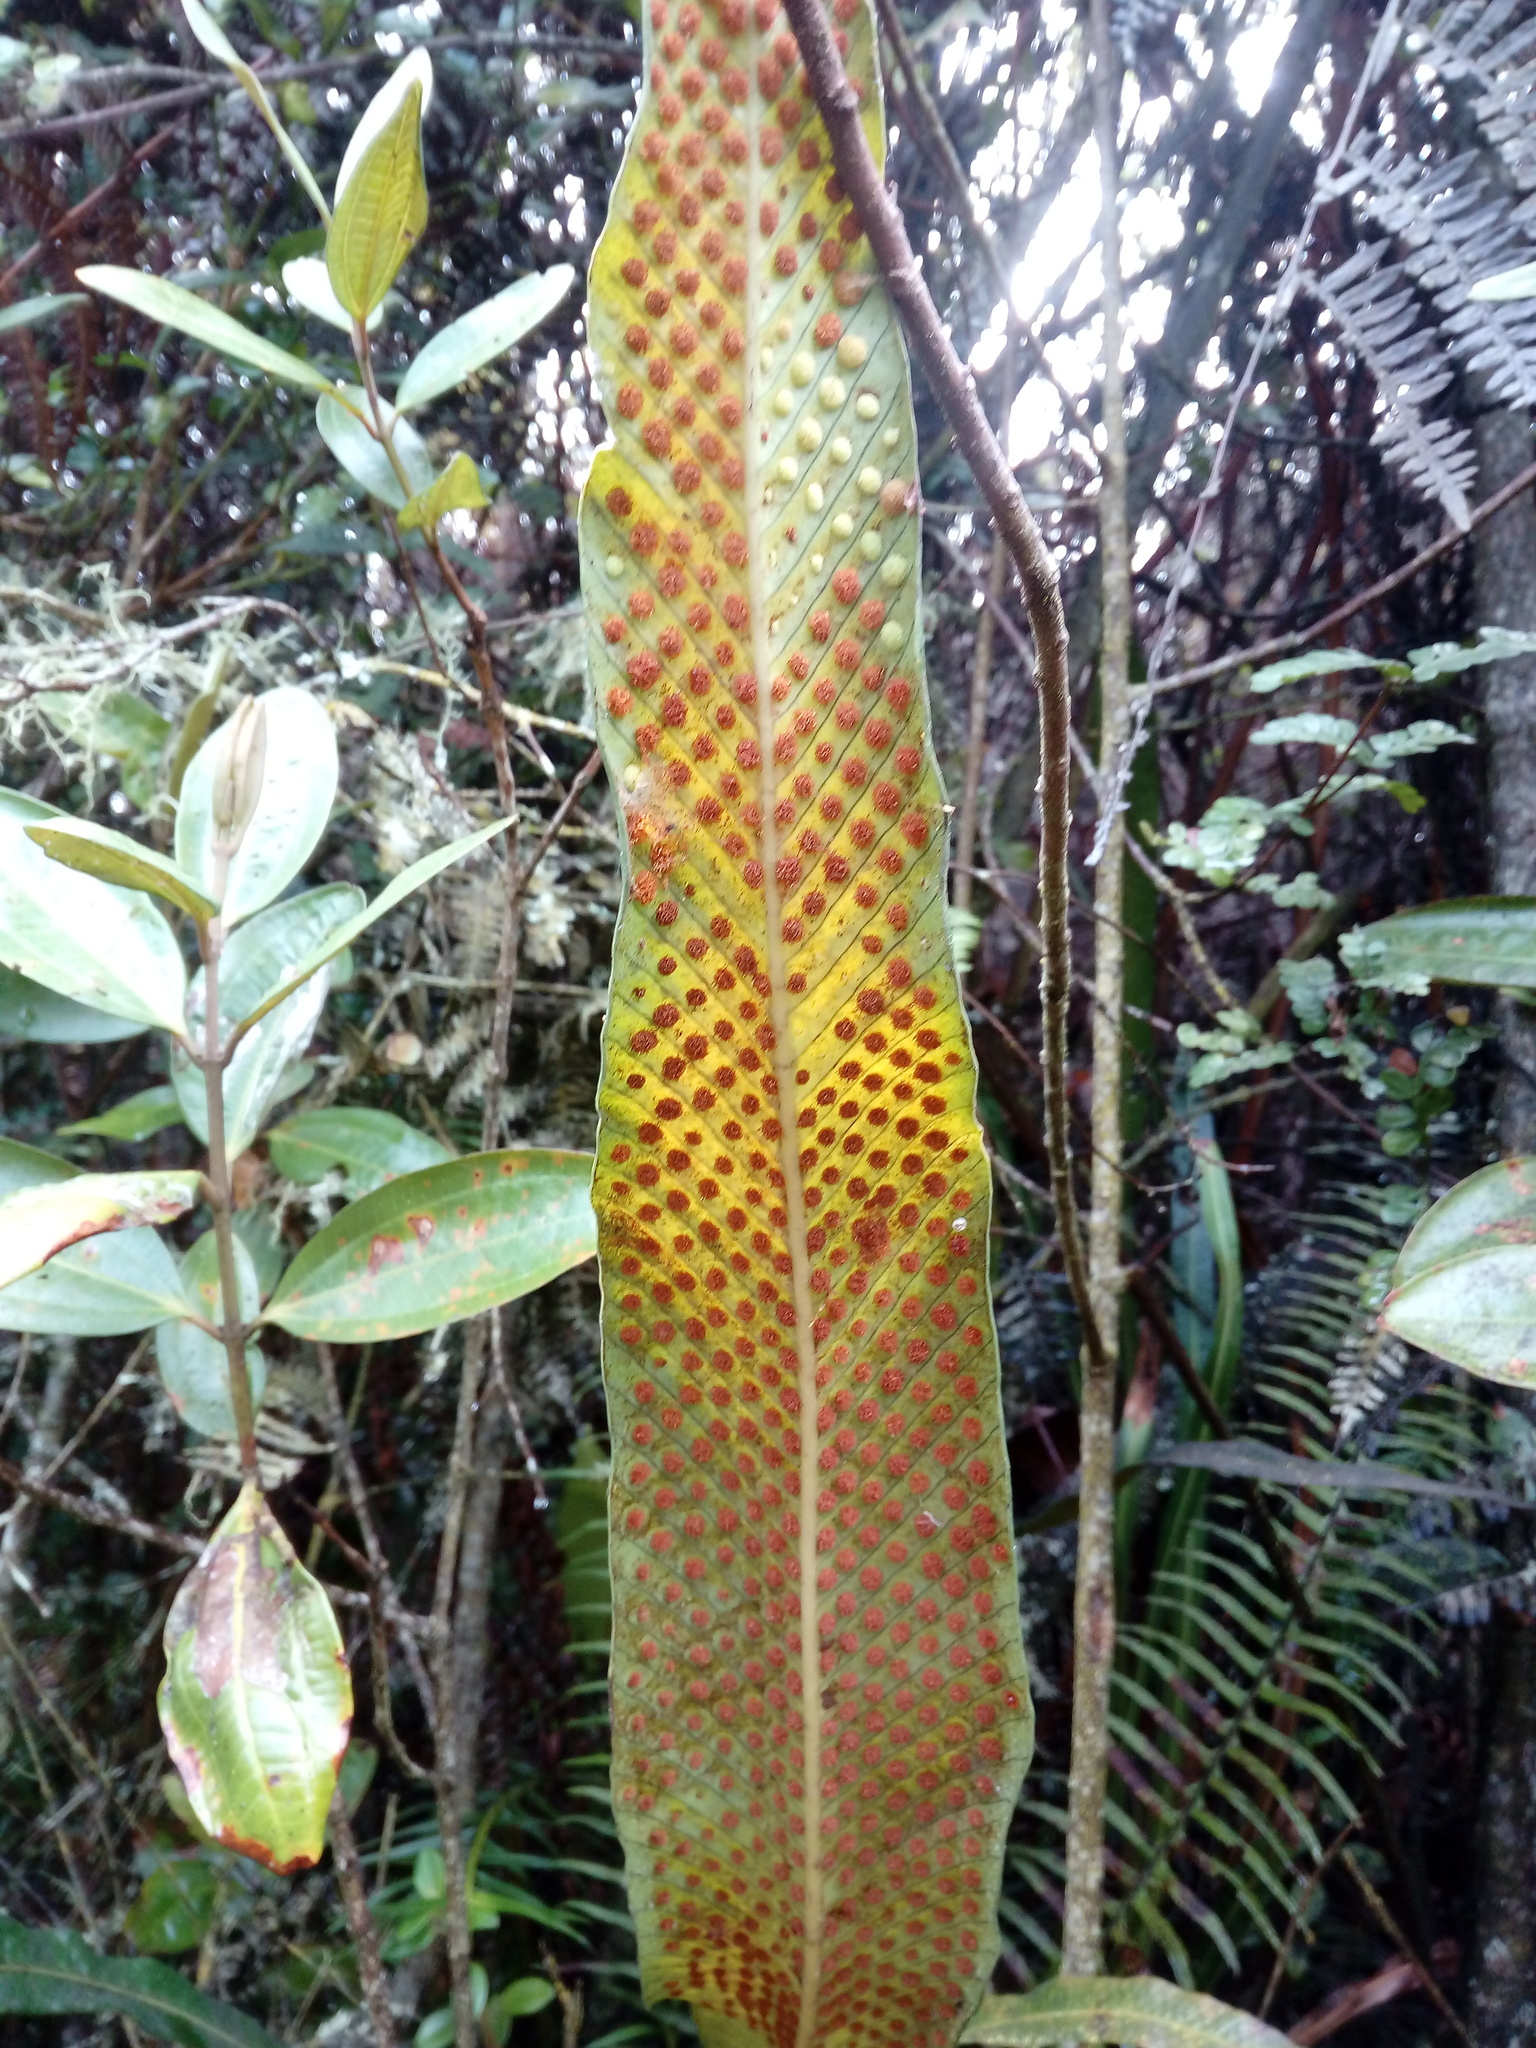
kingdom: Plantae
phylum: Tracheophyta
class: Polypodiopsida
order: Polypodiales
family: Polypodiaceae
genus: Niphidium
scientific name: Niphidium crassifolium
